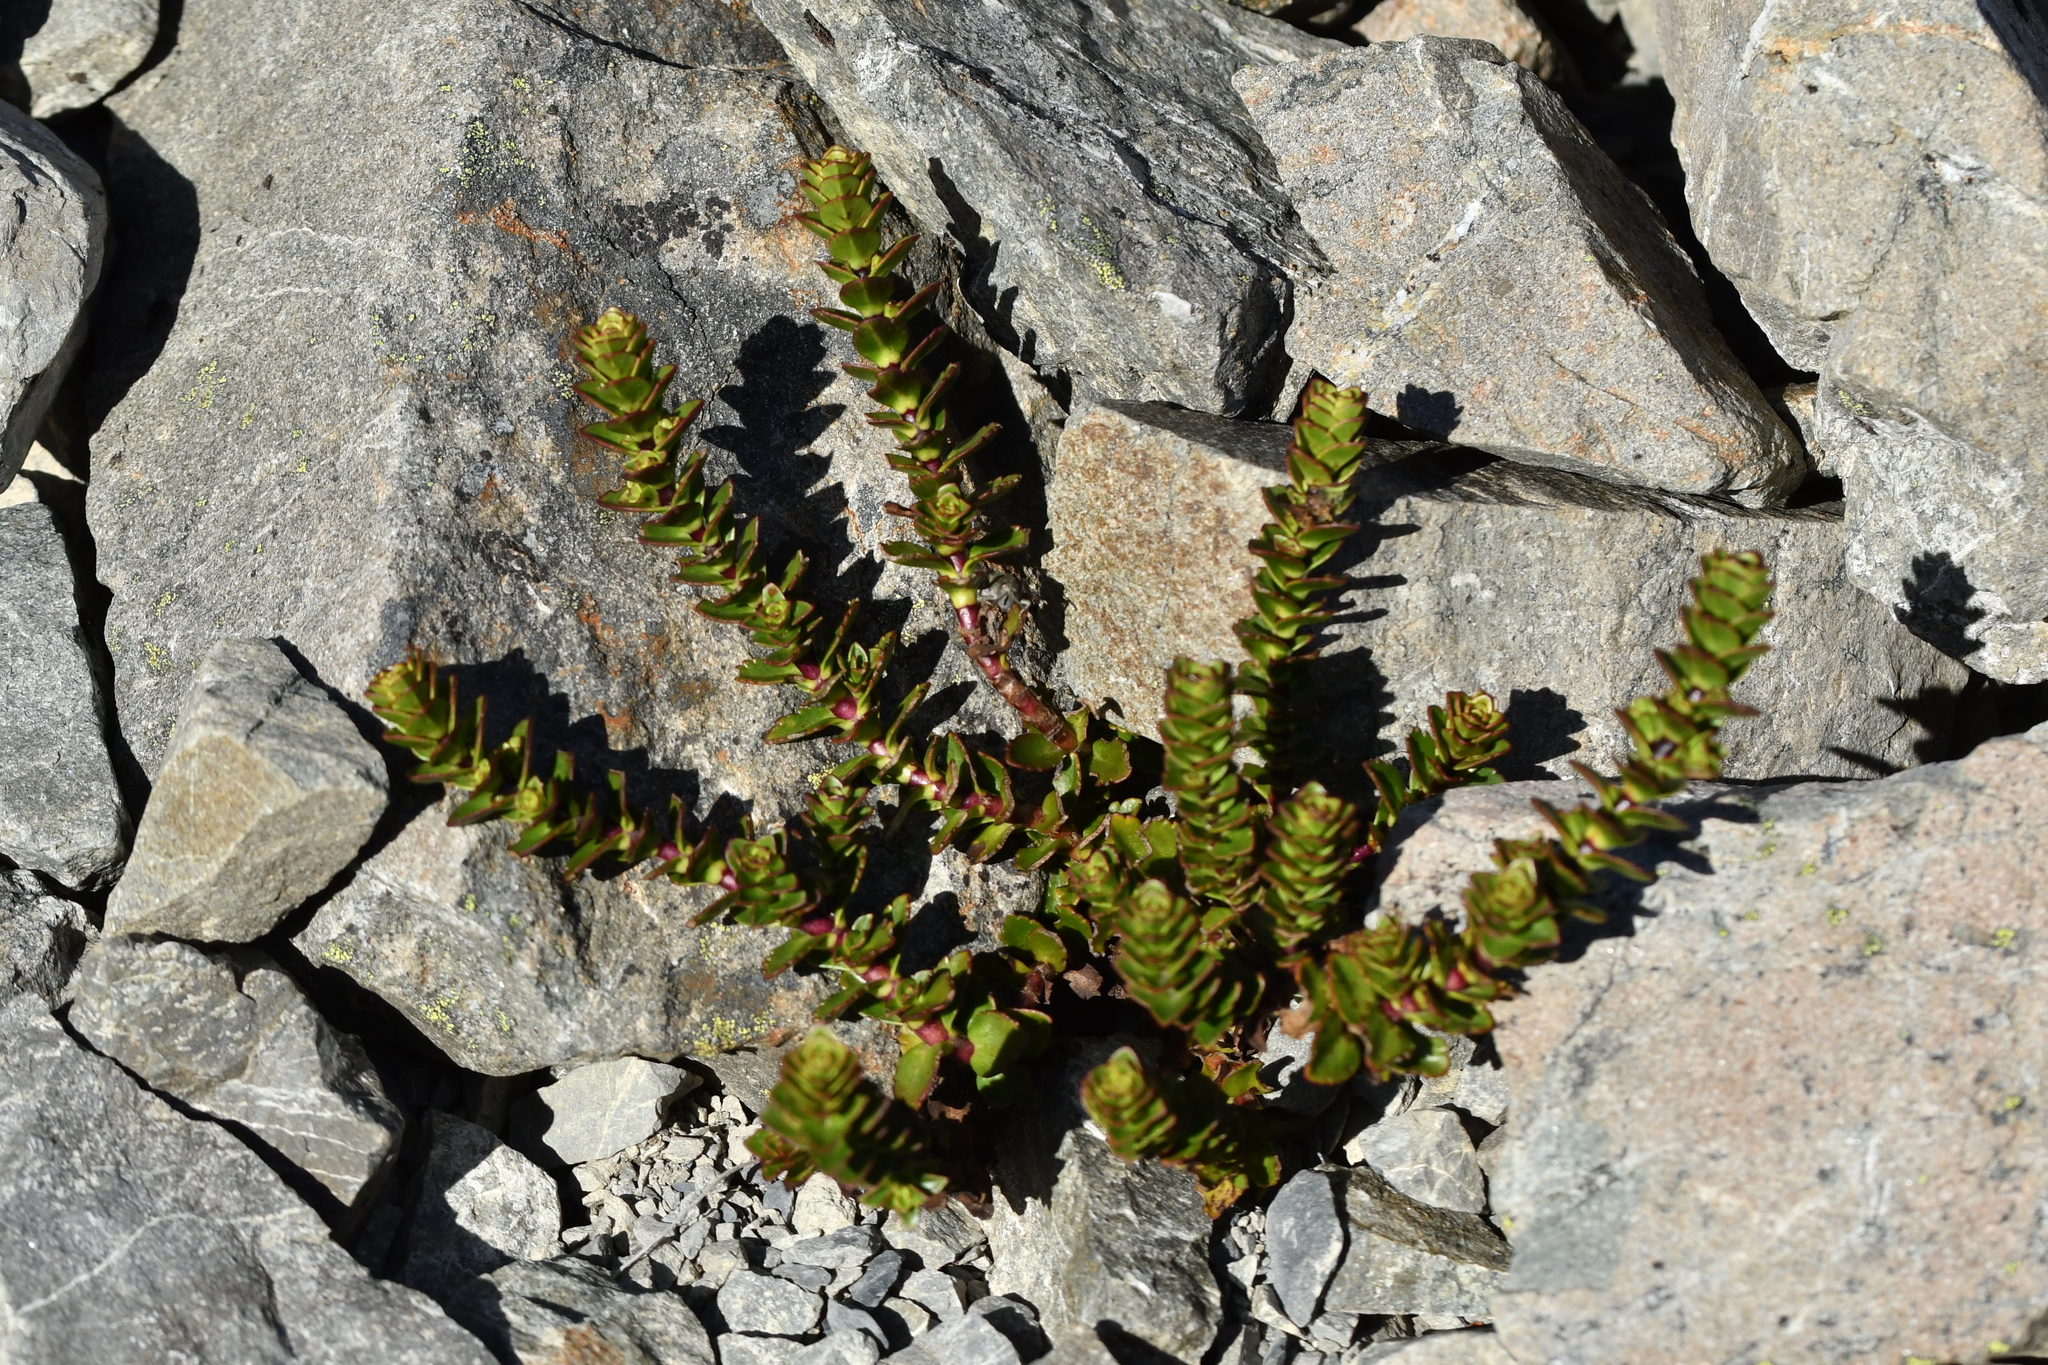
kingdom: Plantae
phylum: Tracheophyta
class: Magnoliopsida
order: Lamiales
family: Plantaginaceae
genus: Veronica
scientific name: Veronica haastii
